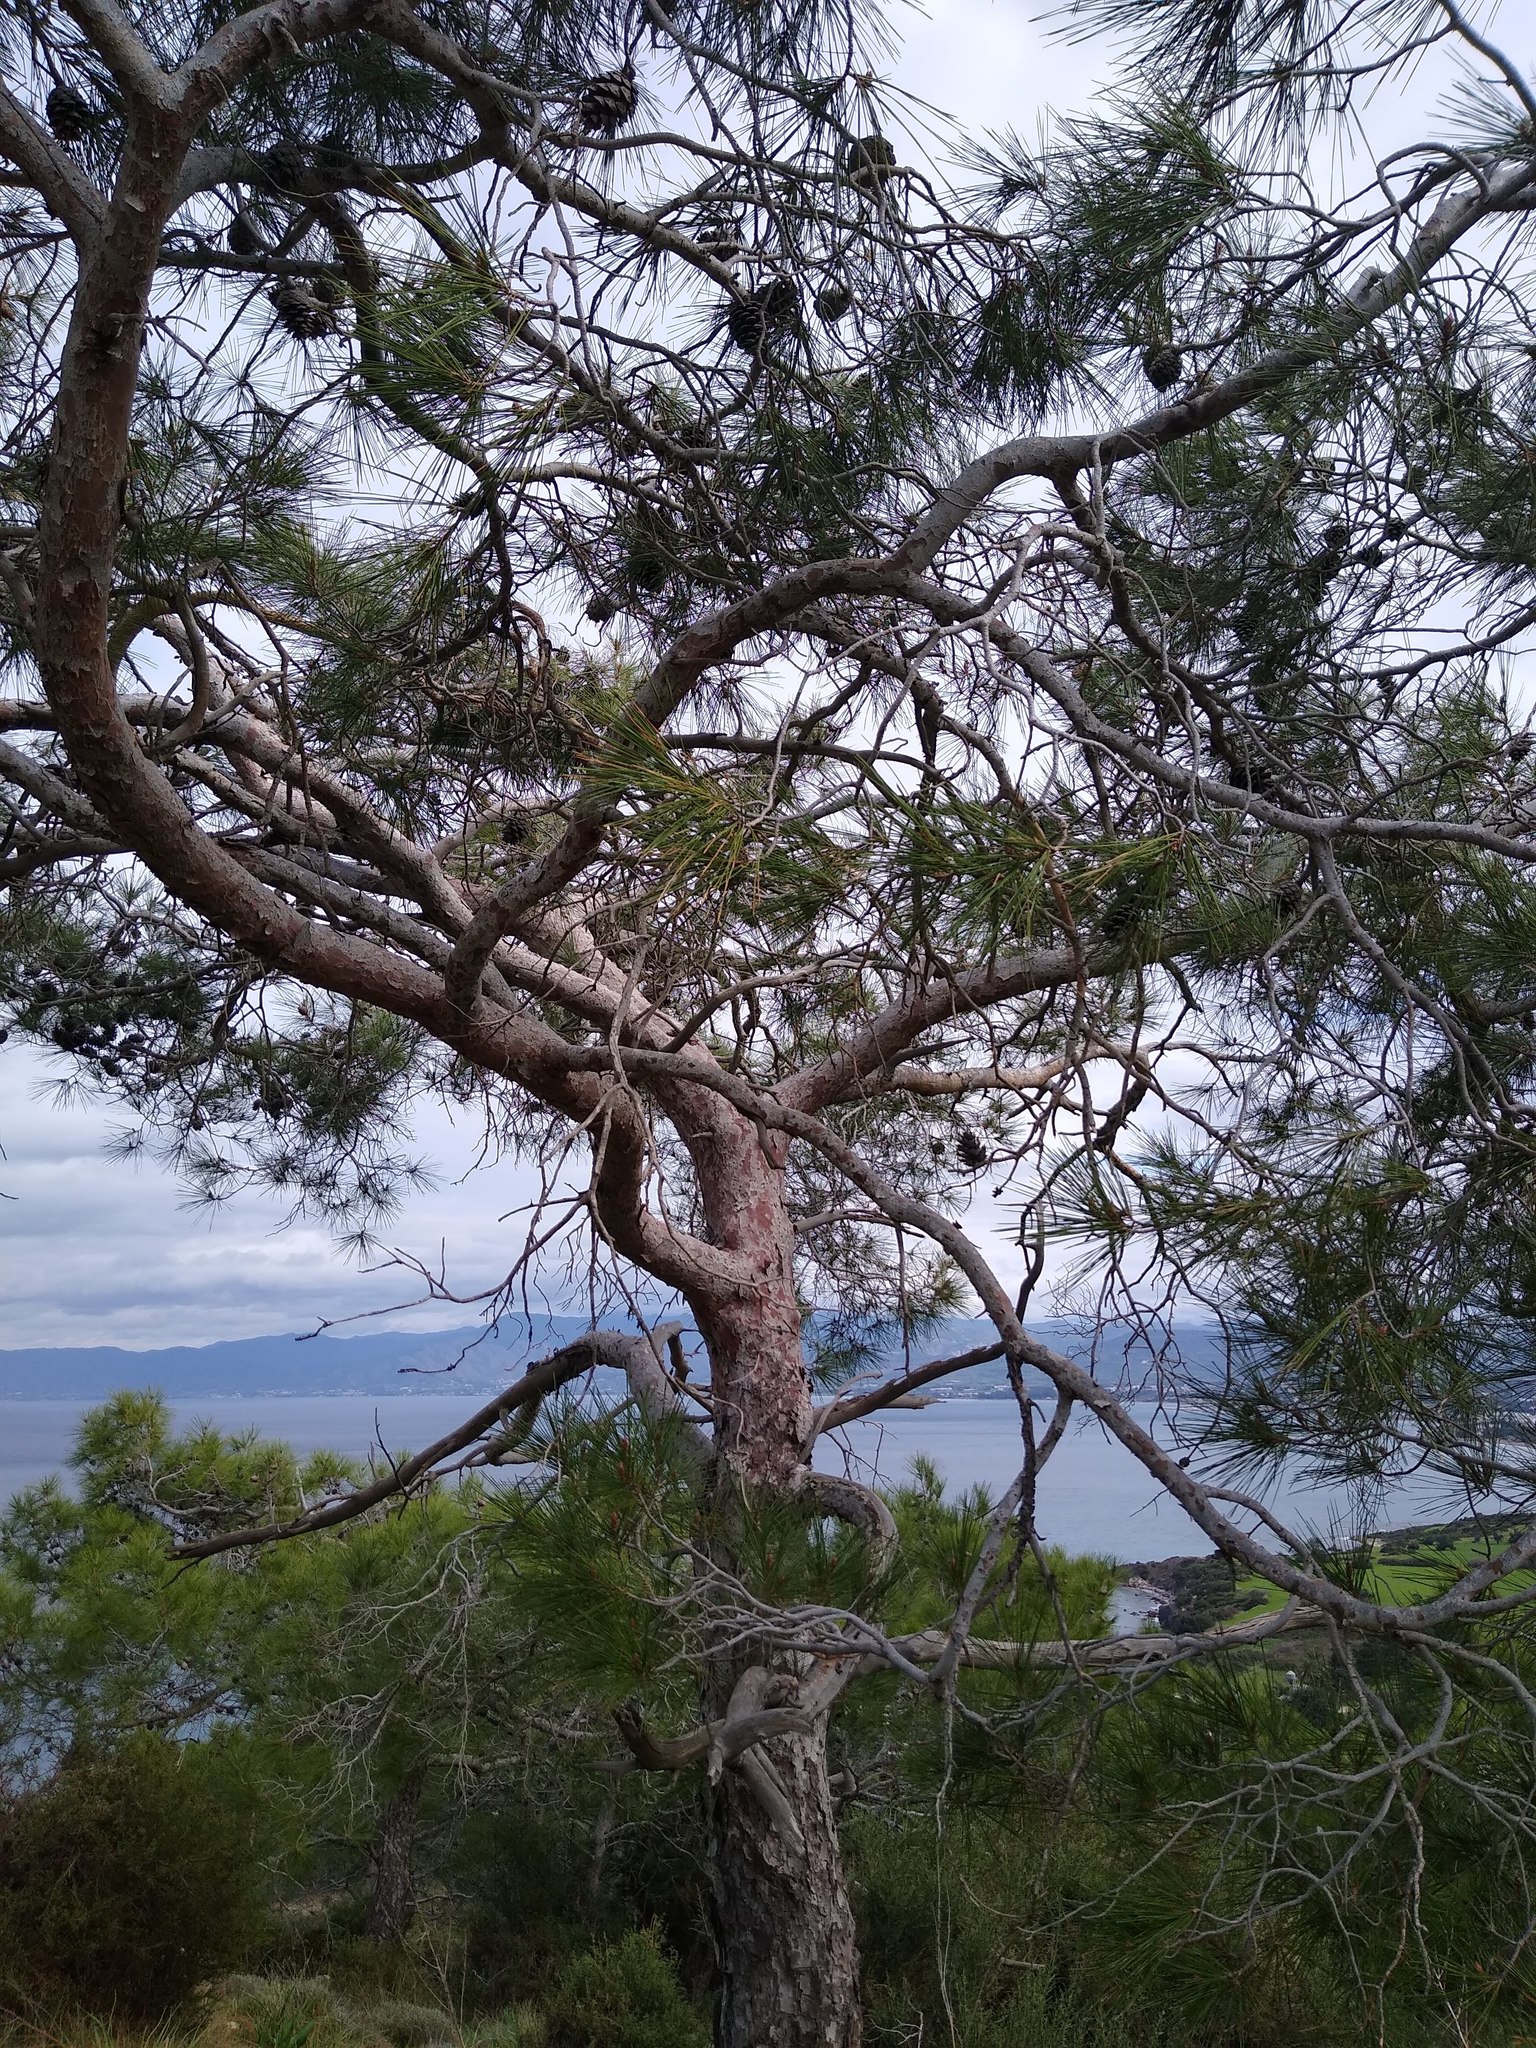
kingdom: Plantae
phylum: Tracheophyta
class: Pinopsida
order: Pinales
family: Pinaceae
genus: Pinus
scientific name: Pinus brutia
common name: Turkish pine
